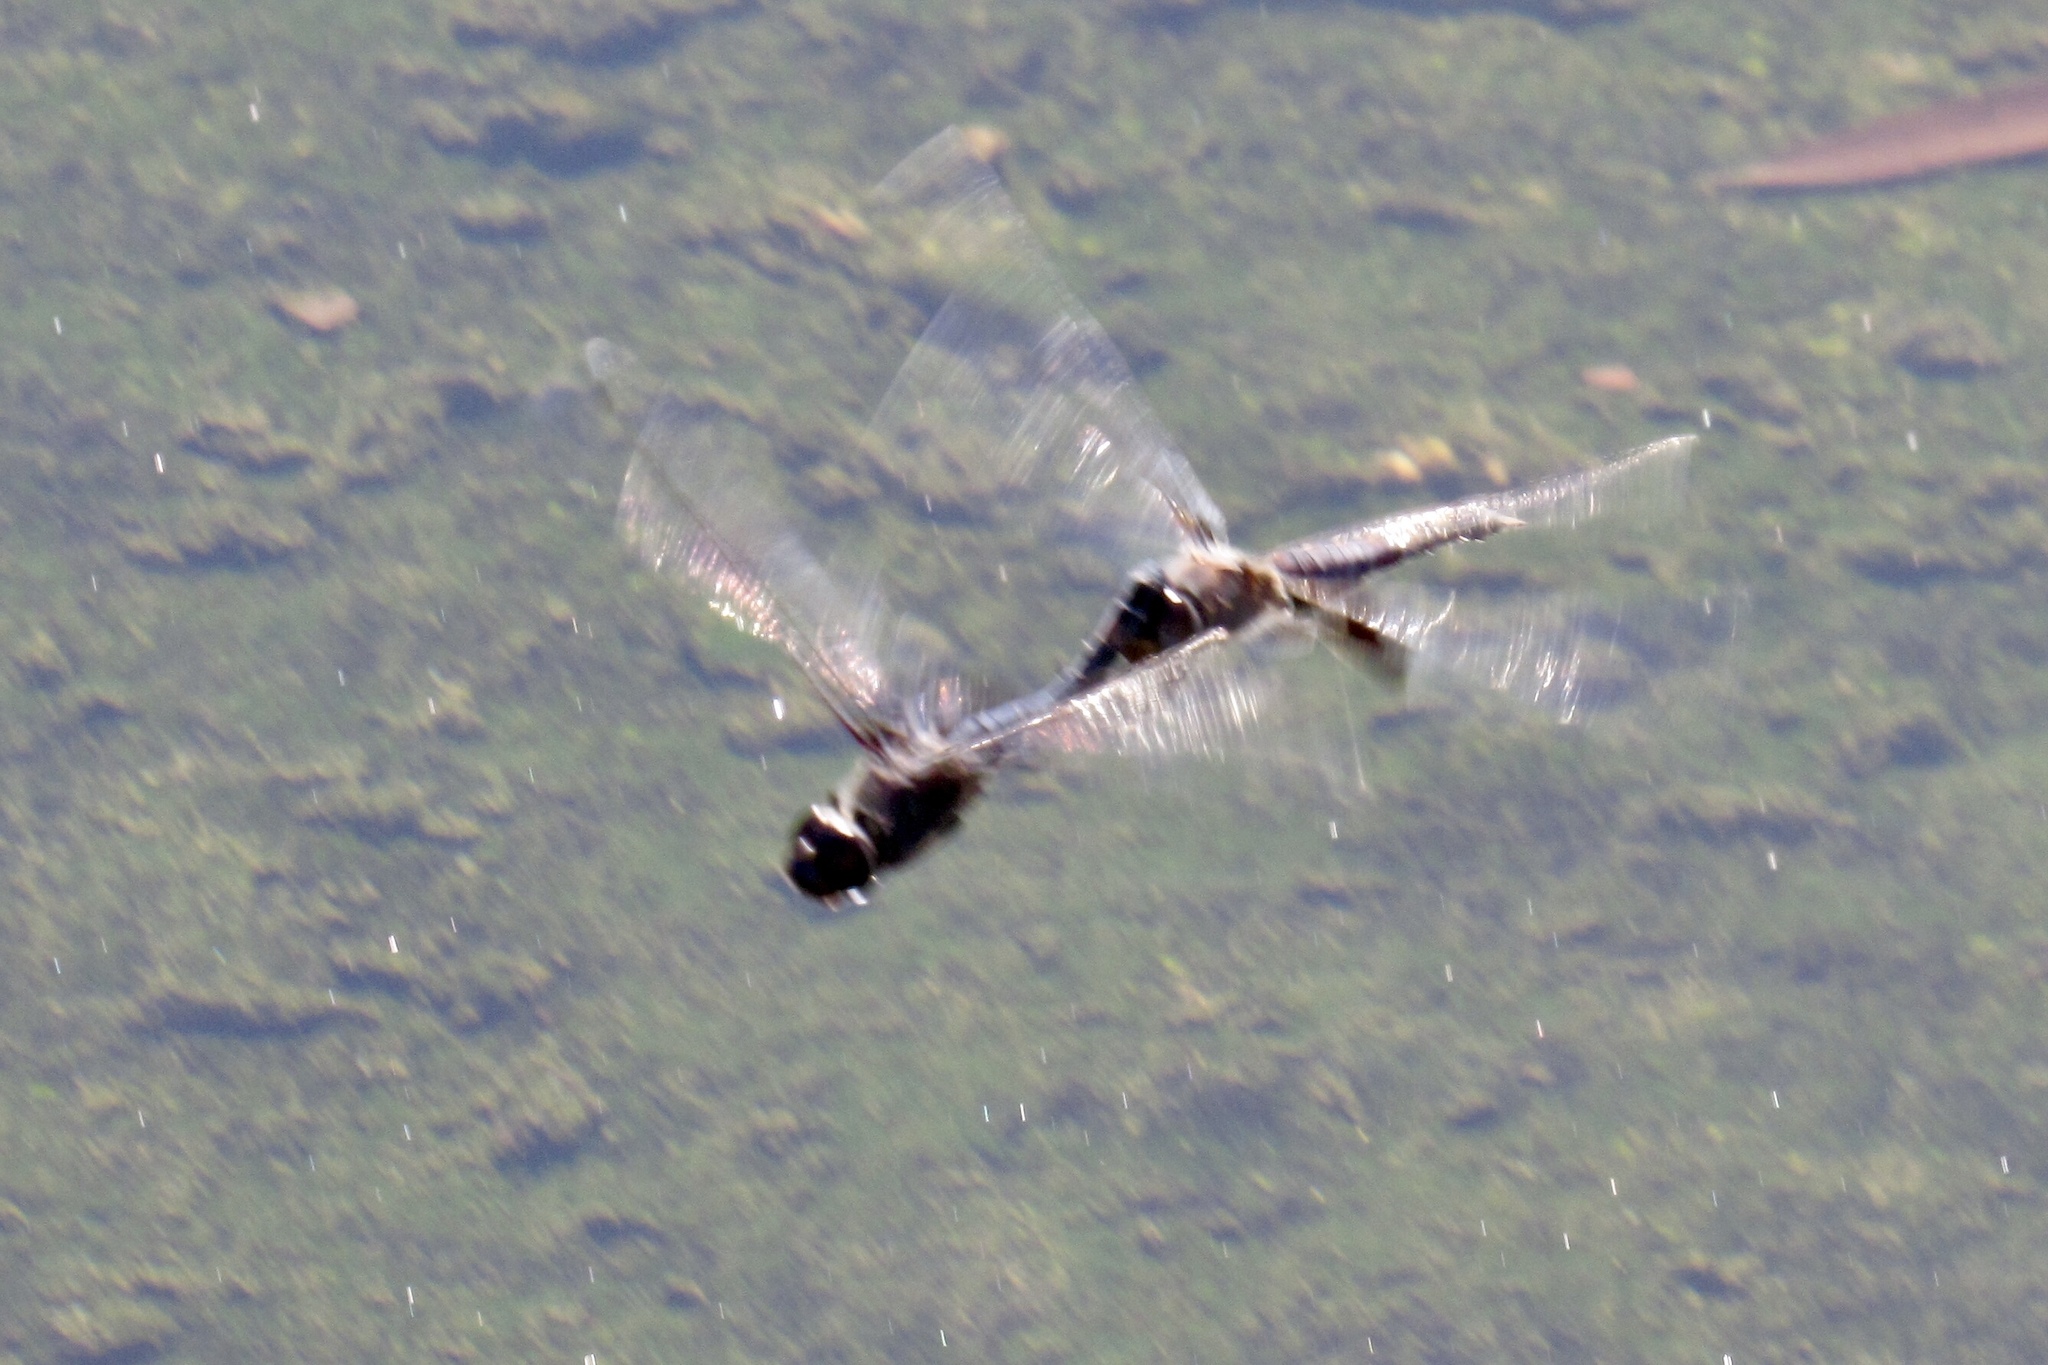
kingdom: Animalia
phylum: Arthropoda
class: Insecta
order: Odonata
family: Libellulidae
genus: Tramea
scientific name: Tramea lacerata
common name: Black saddlebags
